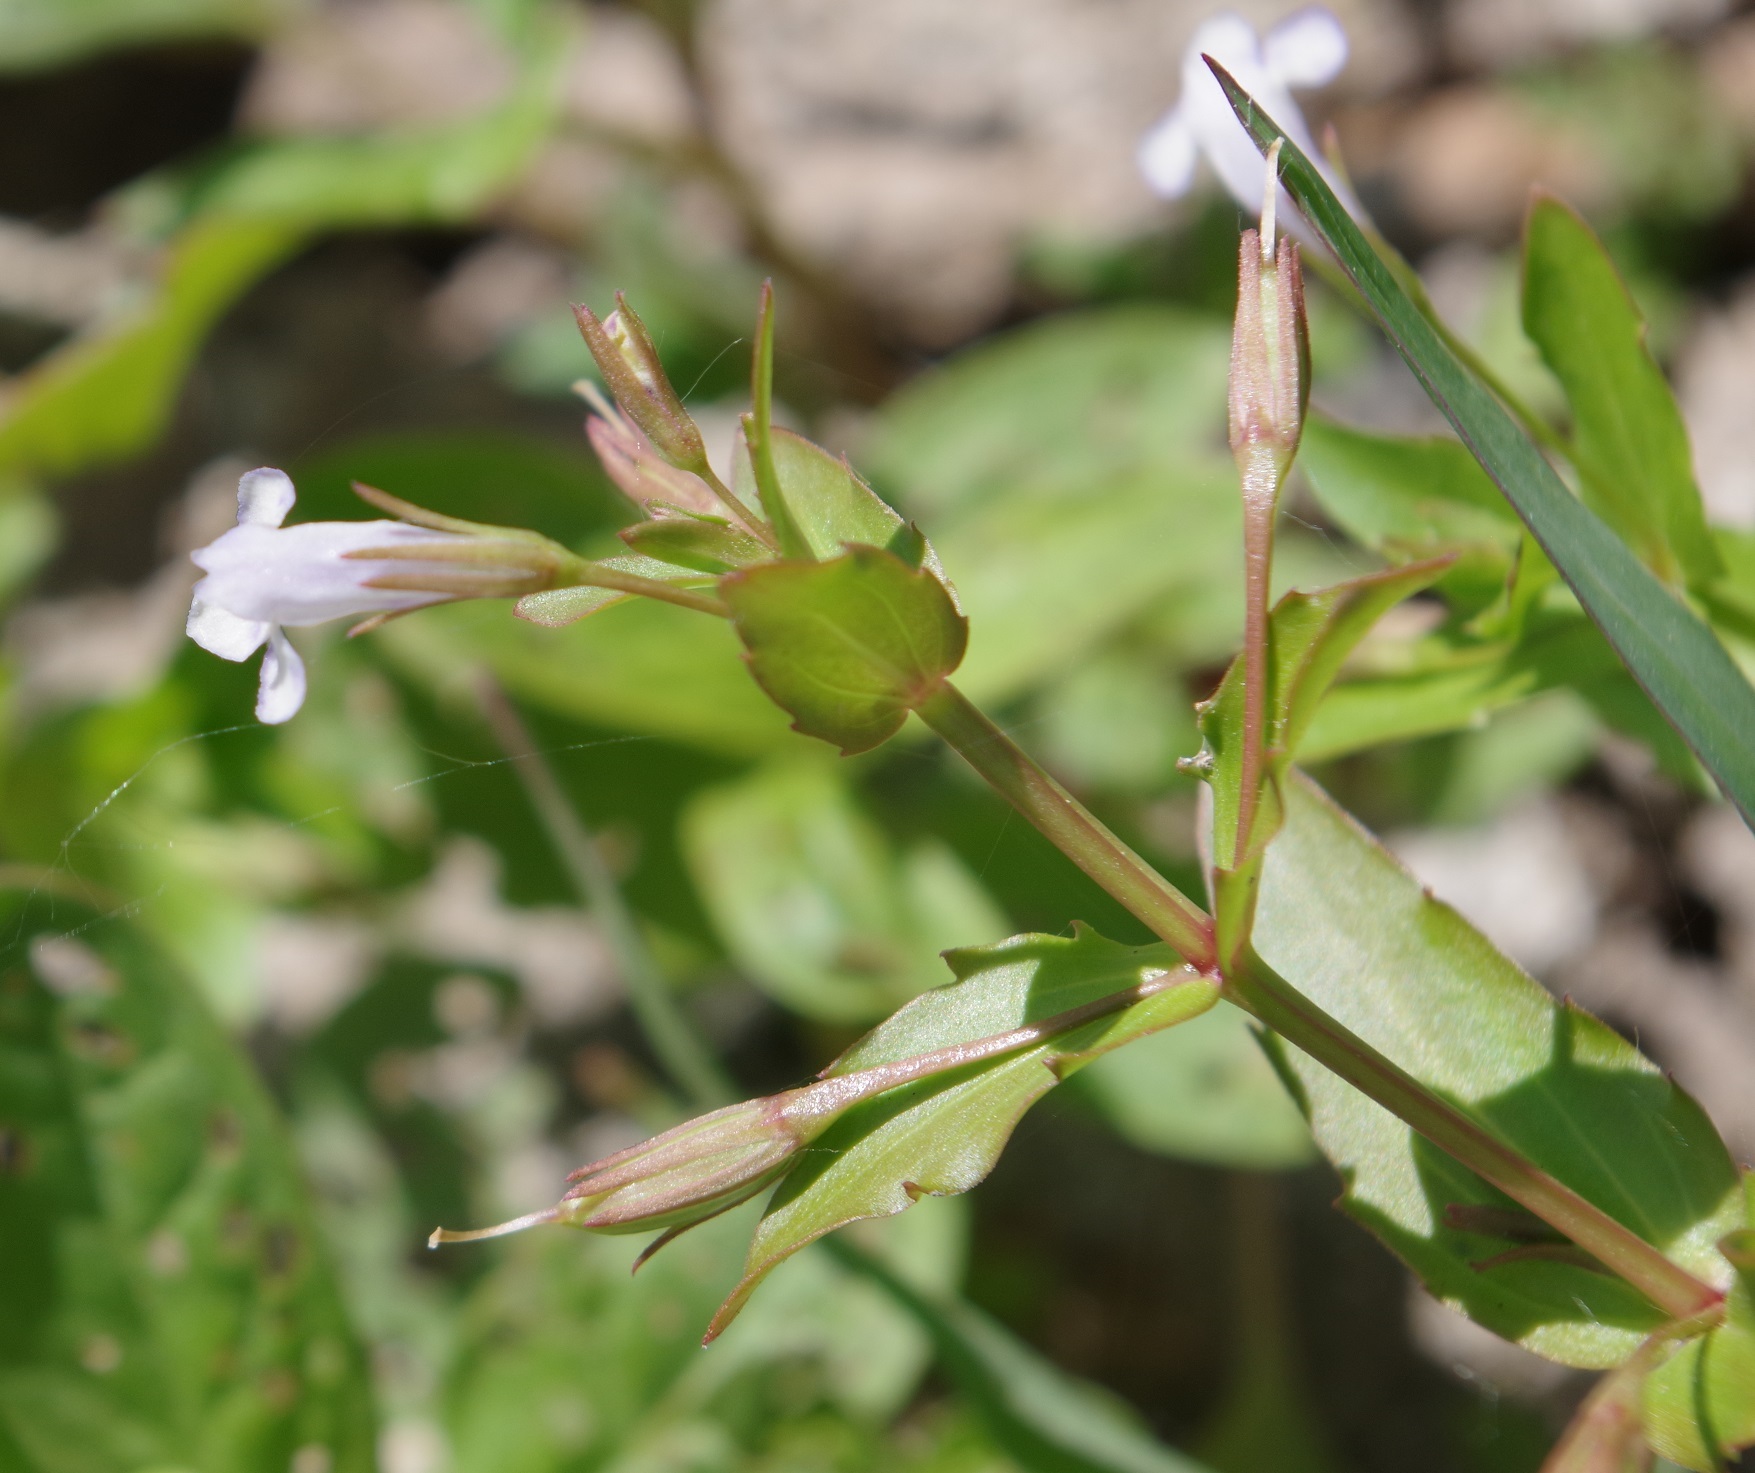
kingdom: Plantae
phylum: Tracheophyta
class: Magnoliopsida
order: Lamiales
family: Linderniaceae
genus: Lindernia
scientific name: Lindernia dubia
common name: Annual false pimpernel
